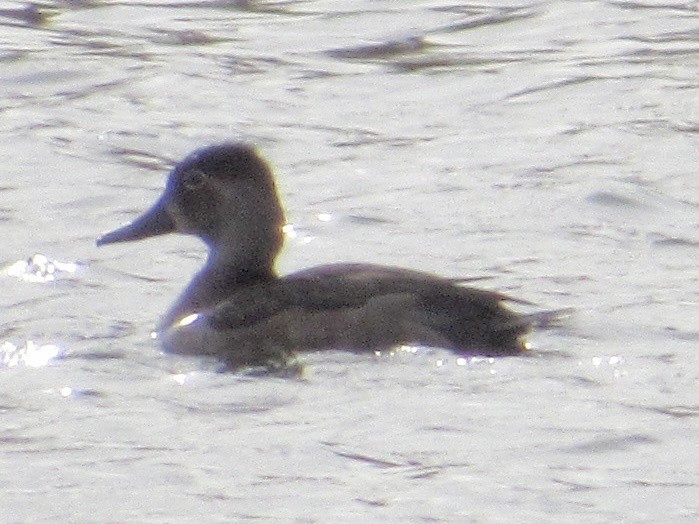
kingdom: Animalia
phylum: Chordata
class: Aves
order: Anseriformes
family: Anatidae
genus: Aythya
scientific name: Aythya collaris
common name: Ring-necked duck
